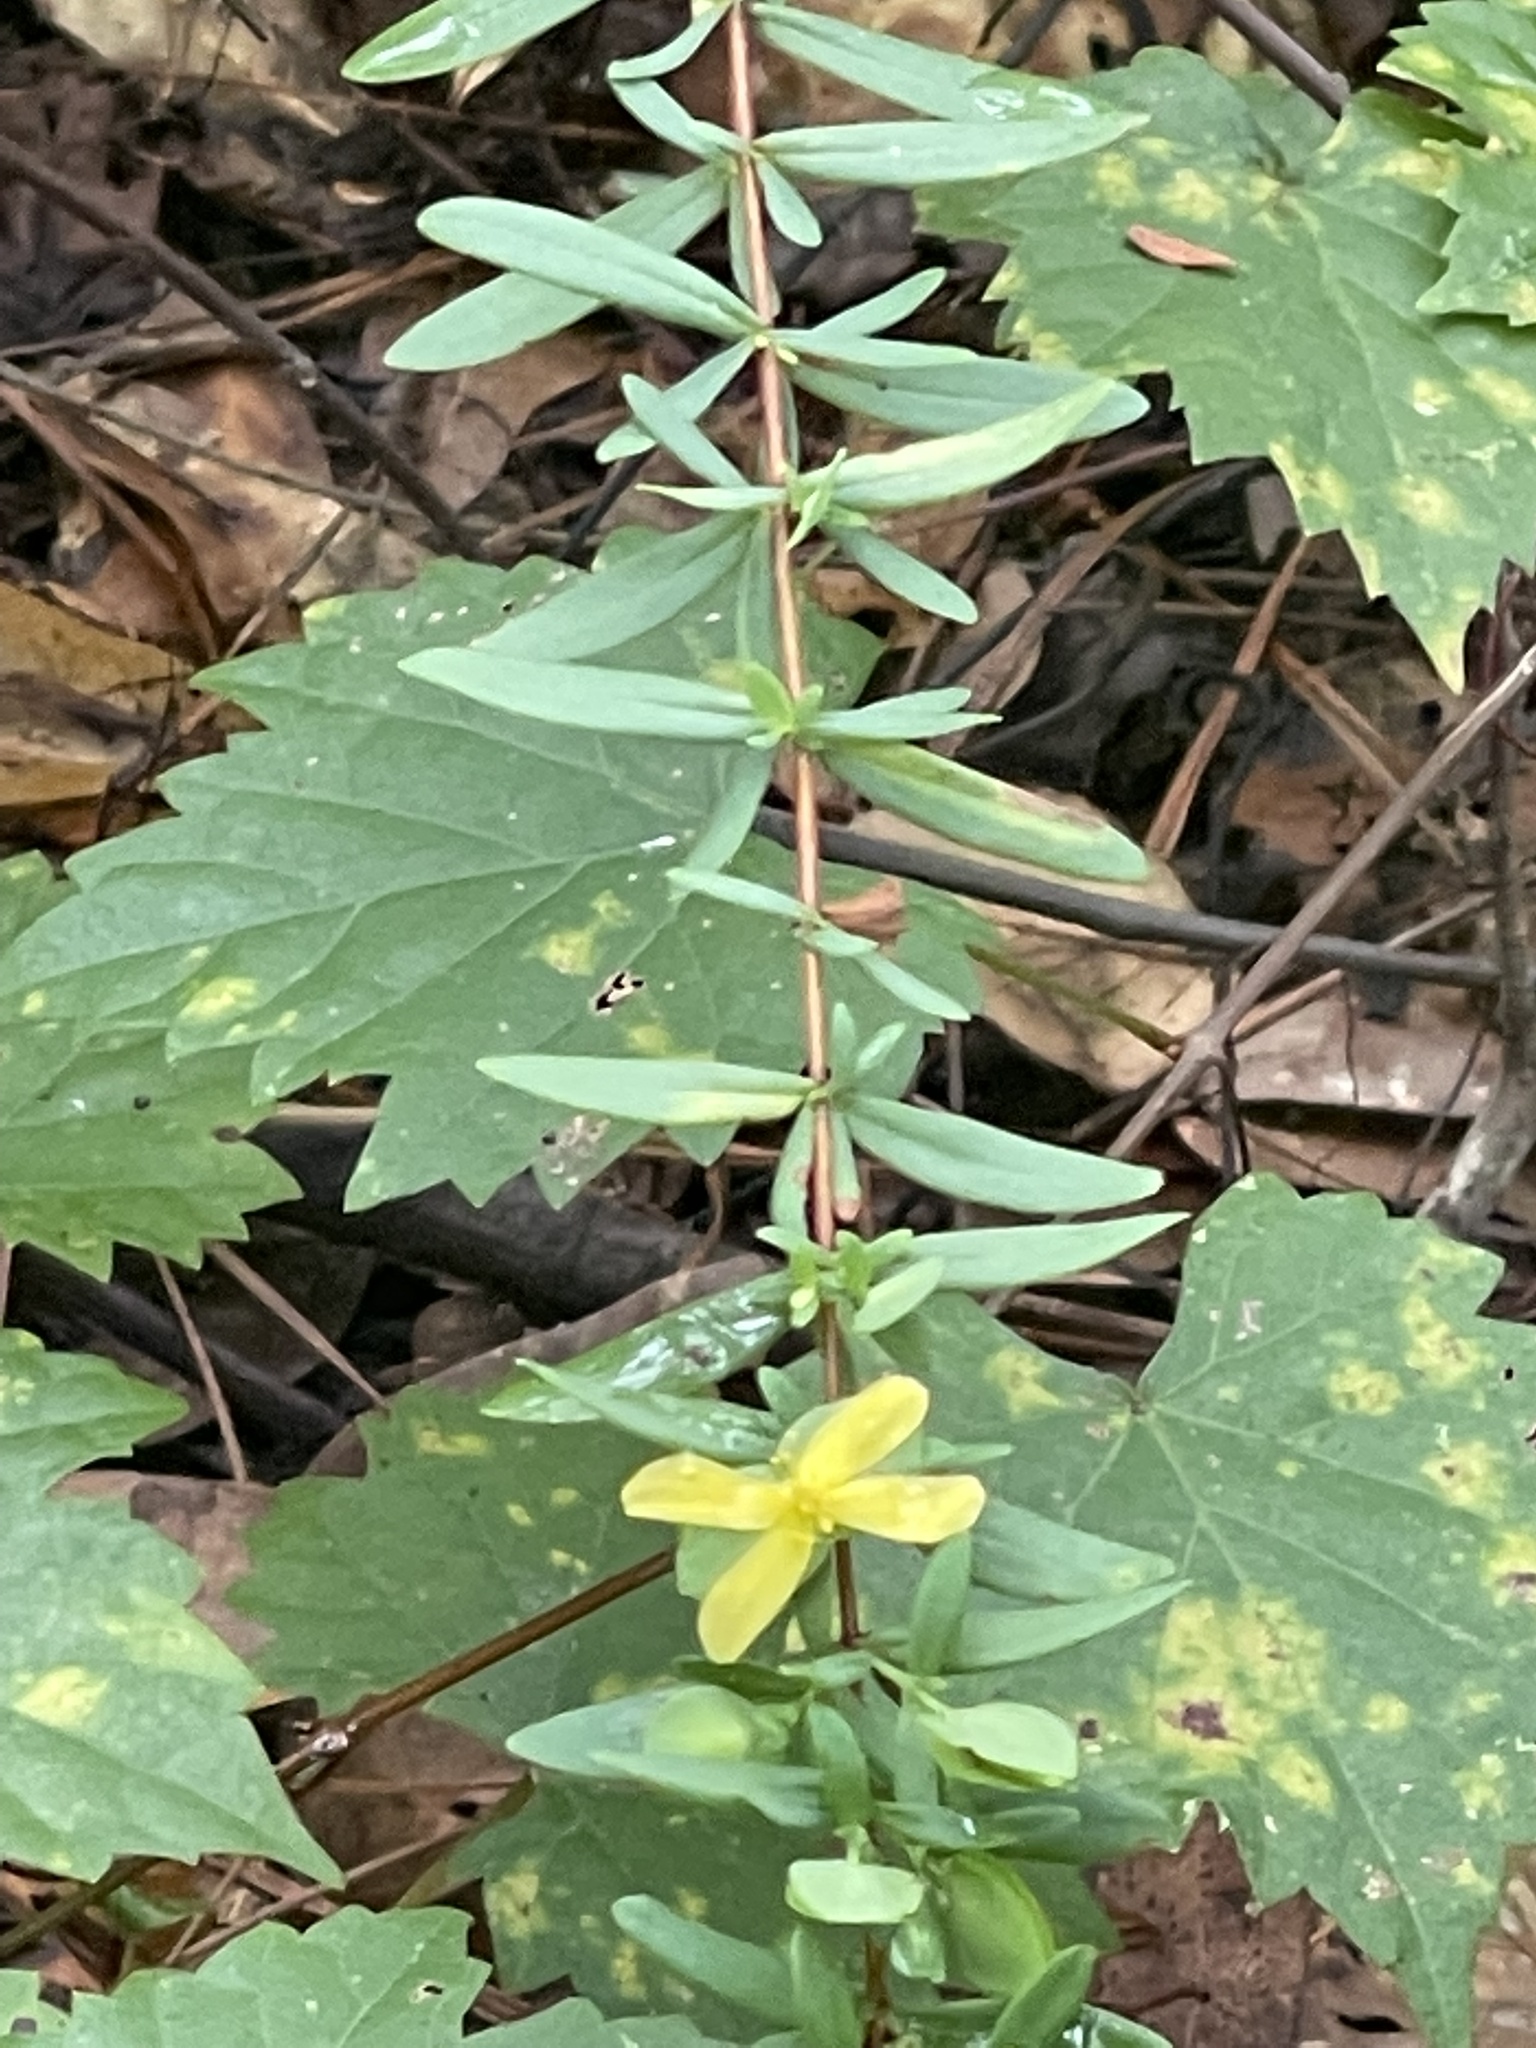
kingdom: Plantae
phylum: Tracheophyta
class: Magnoliopsida
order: Malpighiales
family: Hypericaceae
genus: Hypericum
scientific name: Hypericum hypericoides
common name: St. andrew's cross
